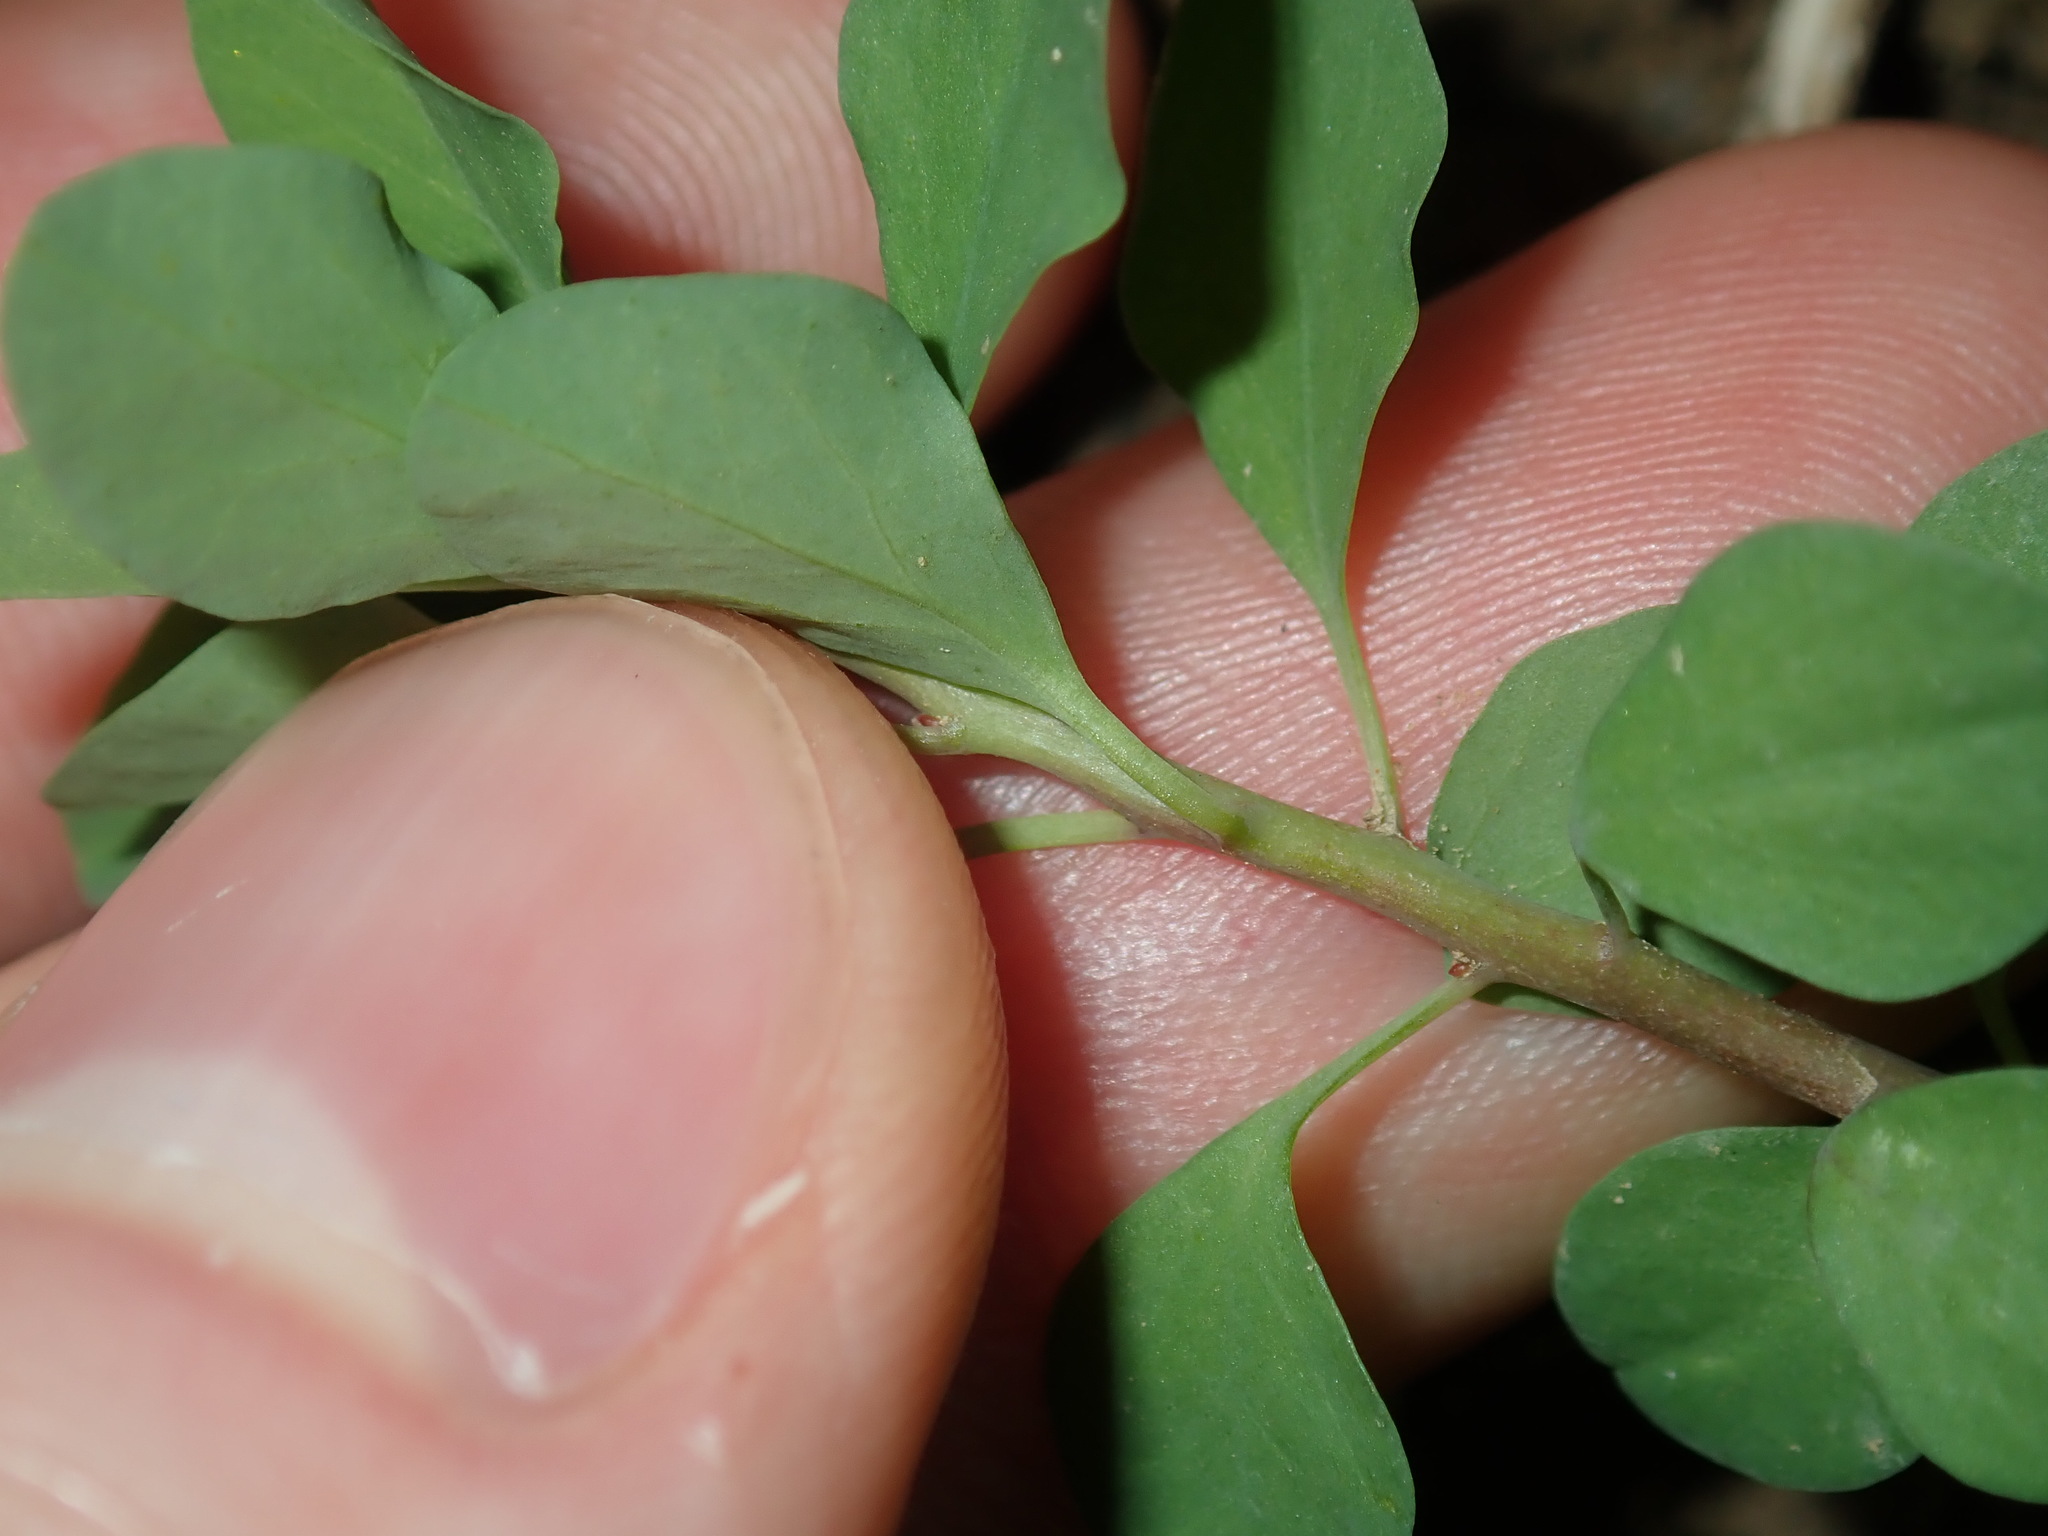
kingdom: Plantae
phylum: Tracheophyta
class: Magnoliopsida
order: Malpighiales
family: Euphorbiaceae
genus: Euphorbia
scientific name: Euphorbia peplus
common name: Petty spurge
